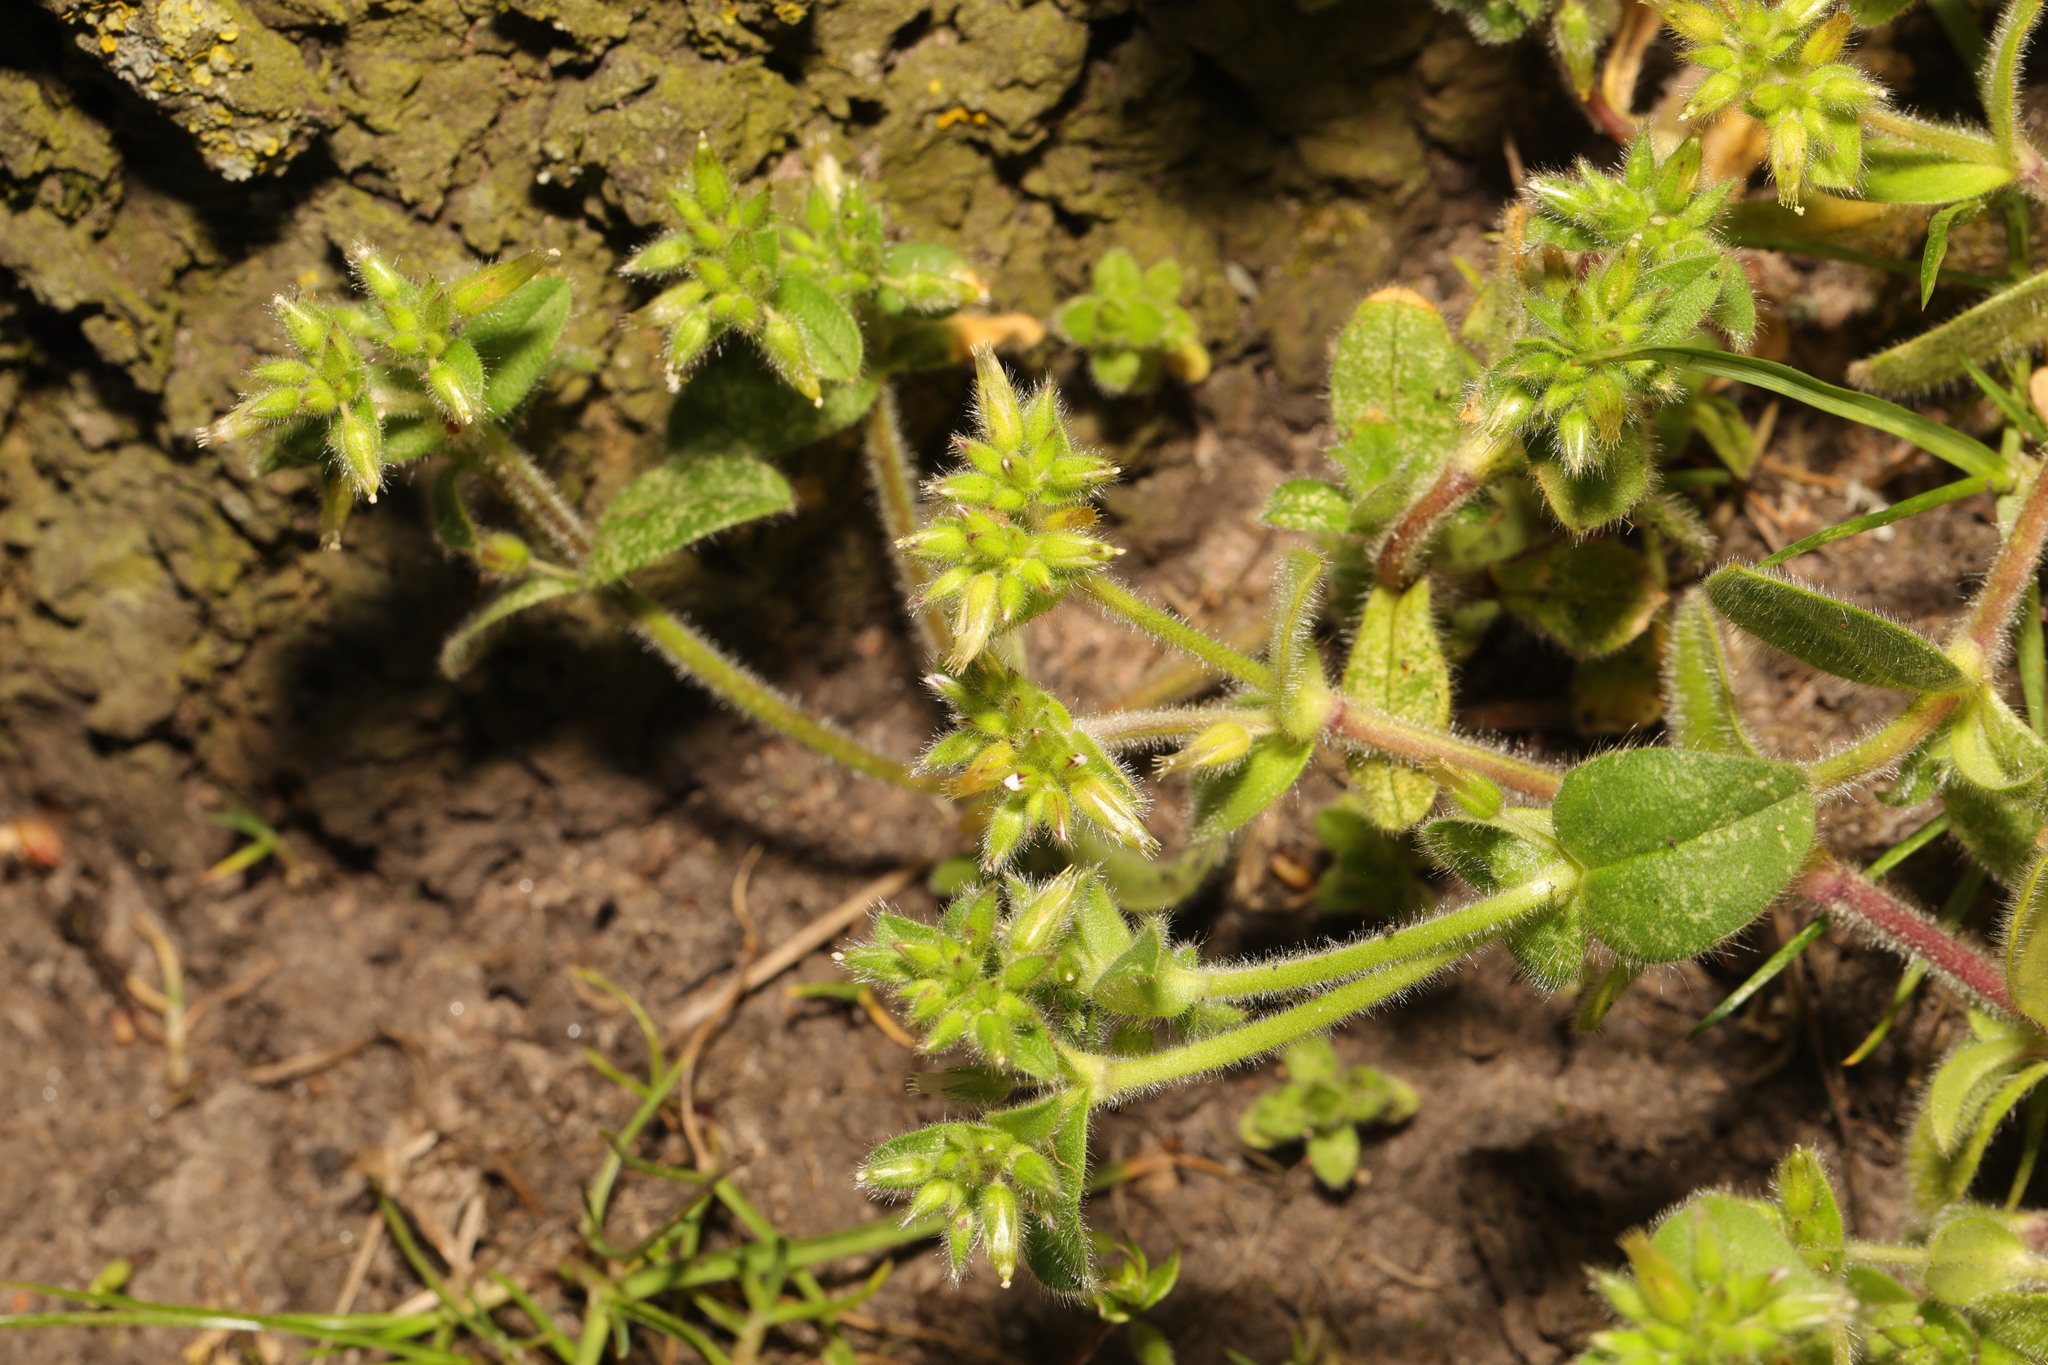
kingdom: Plantae
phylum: Tracheophyta
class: Magnoliopsida
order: Caryophyllales
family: Caryophyllaceae
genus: Cerastium
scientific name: Cerastium glomeratum
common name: Sticky chickweed
